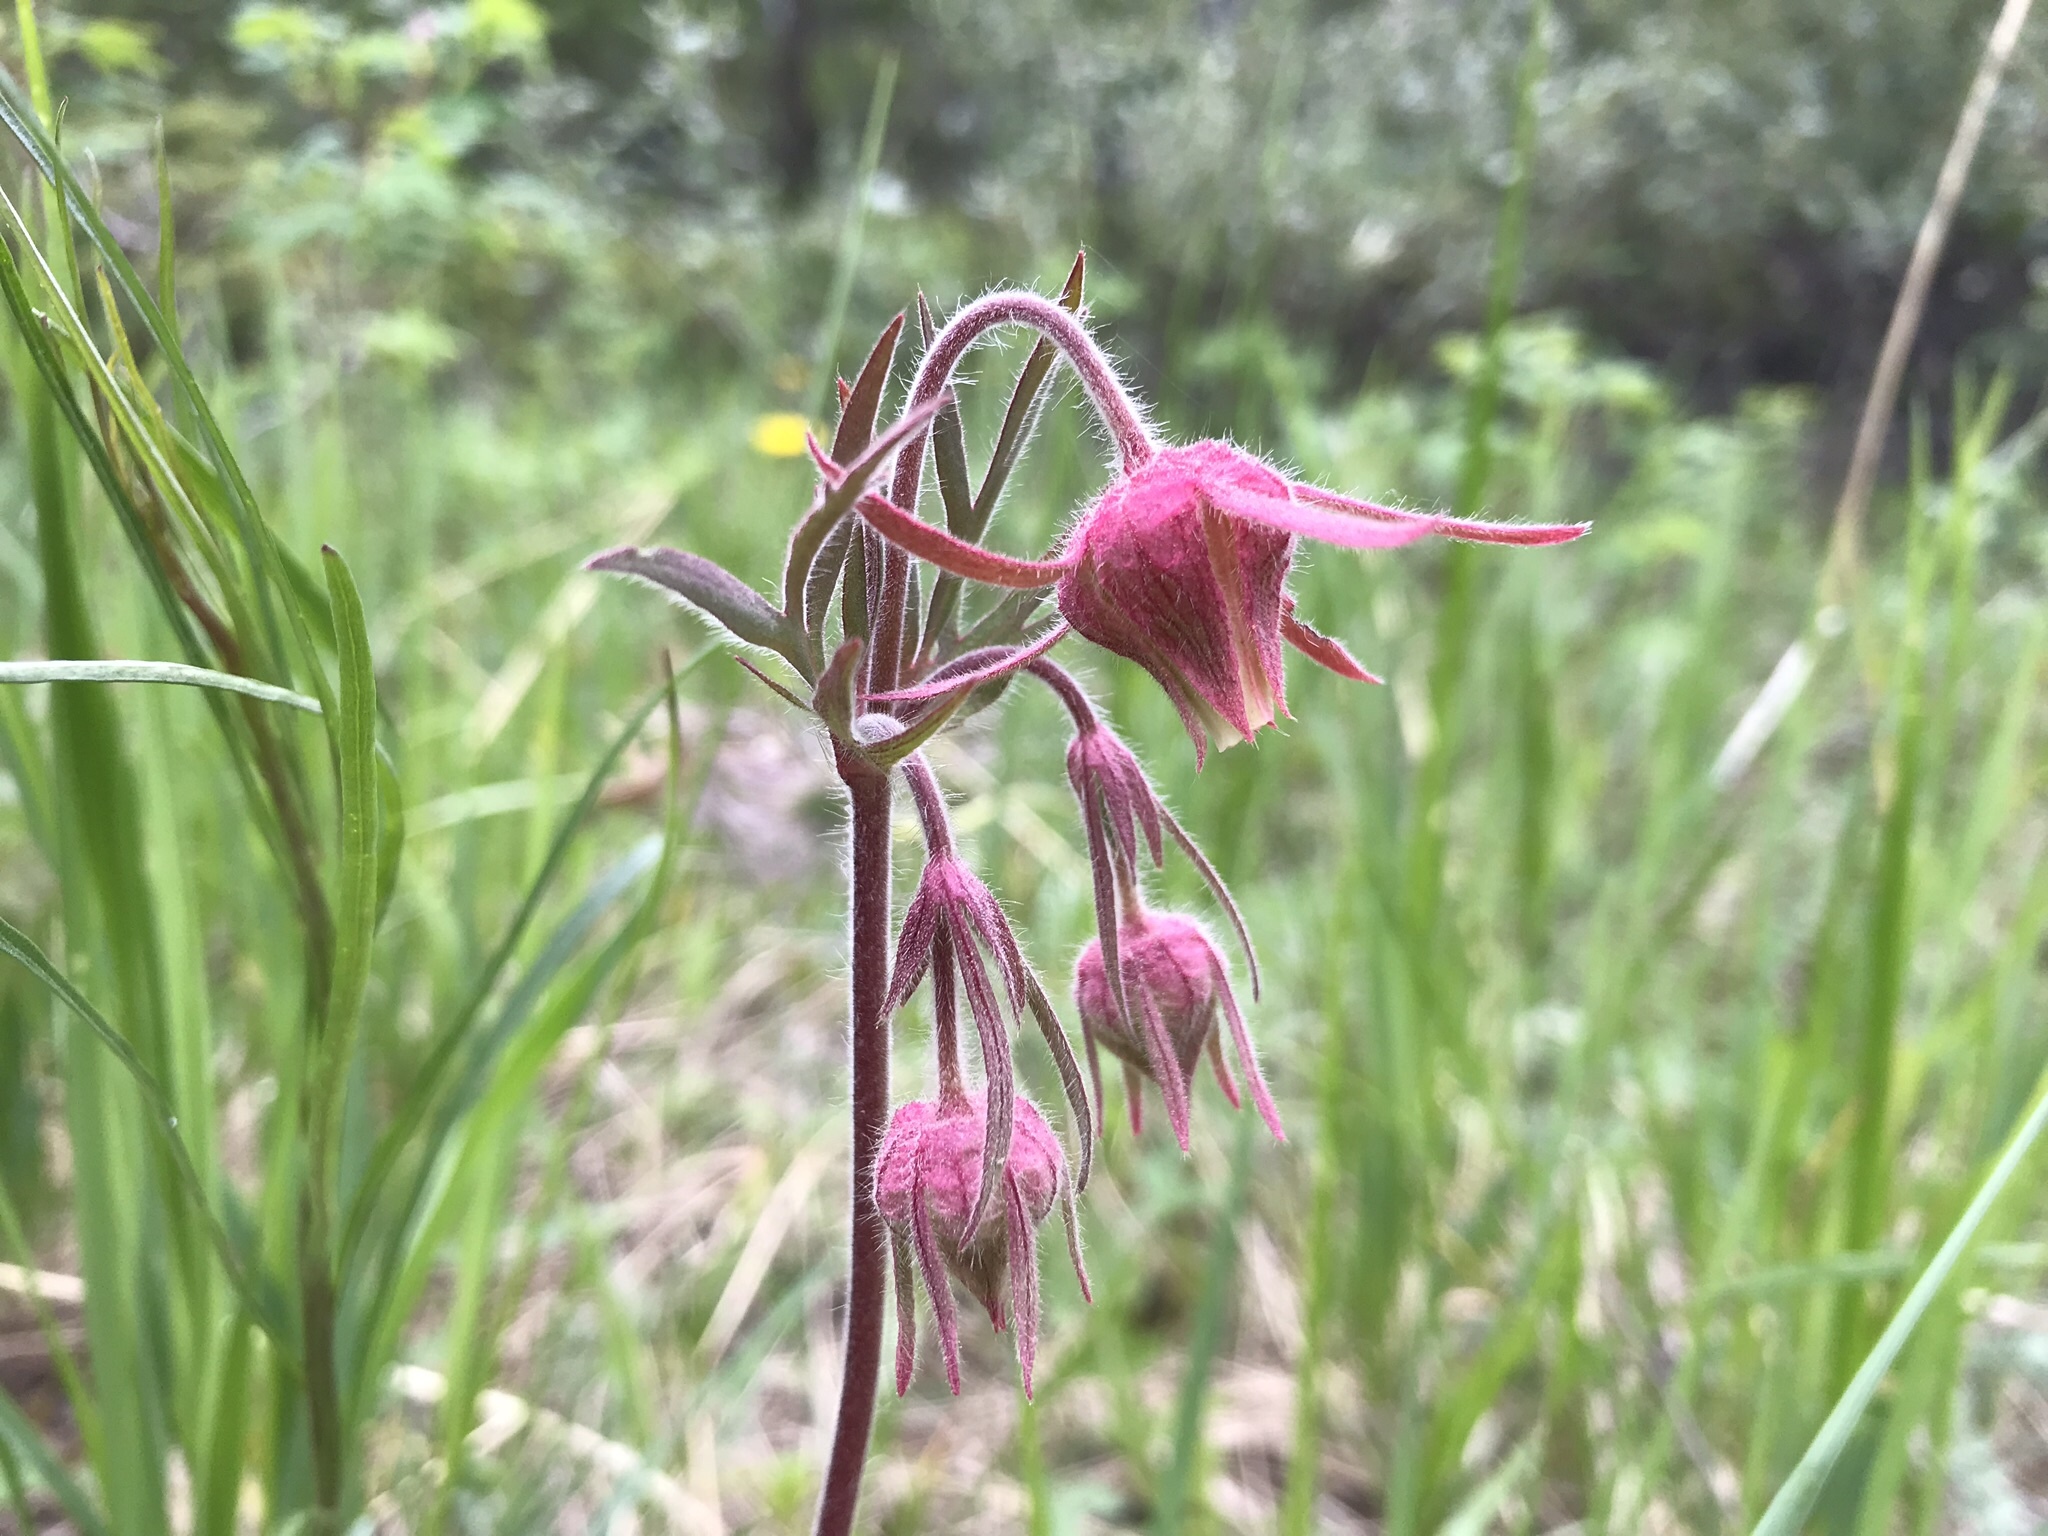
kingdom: Plantae
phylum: Tracheophyta
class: Magnoliopsida
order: Rosales
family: Rosaceae
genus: Geum
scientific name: Geum triflorum
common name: Old man's whiskers
